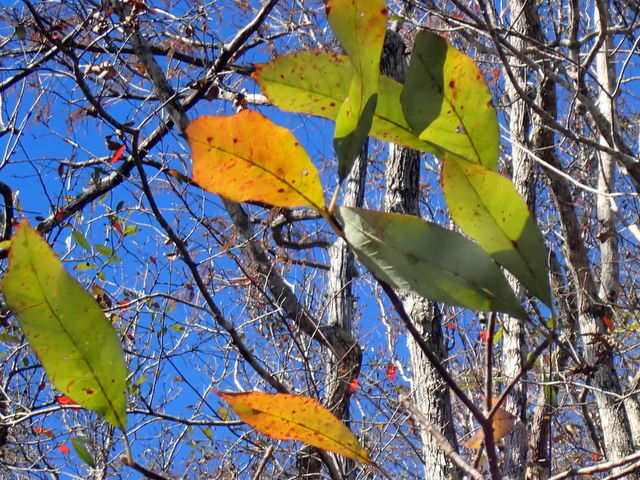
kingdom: Plantae
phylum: Tracheophyta
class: Magnoliopsida
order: Cornales
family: Nyssaceae
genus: Nyssa
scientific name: Nyssa ogeche
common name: Ogeechee tupelo
